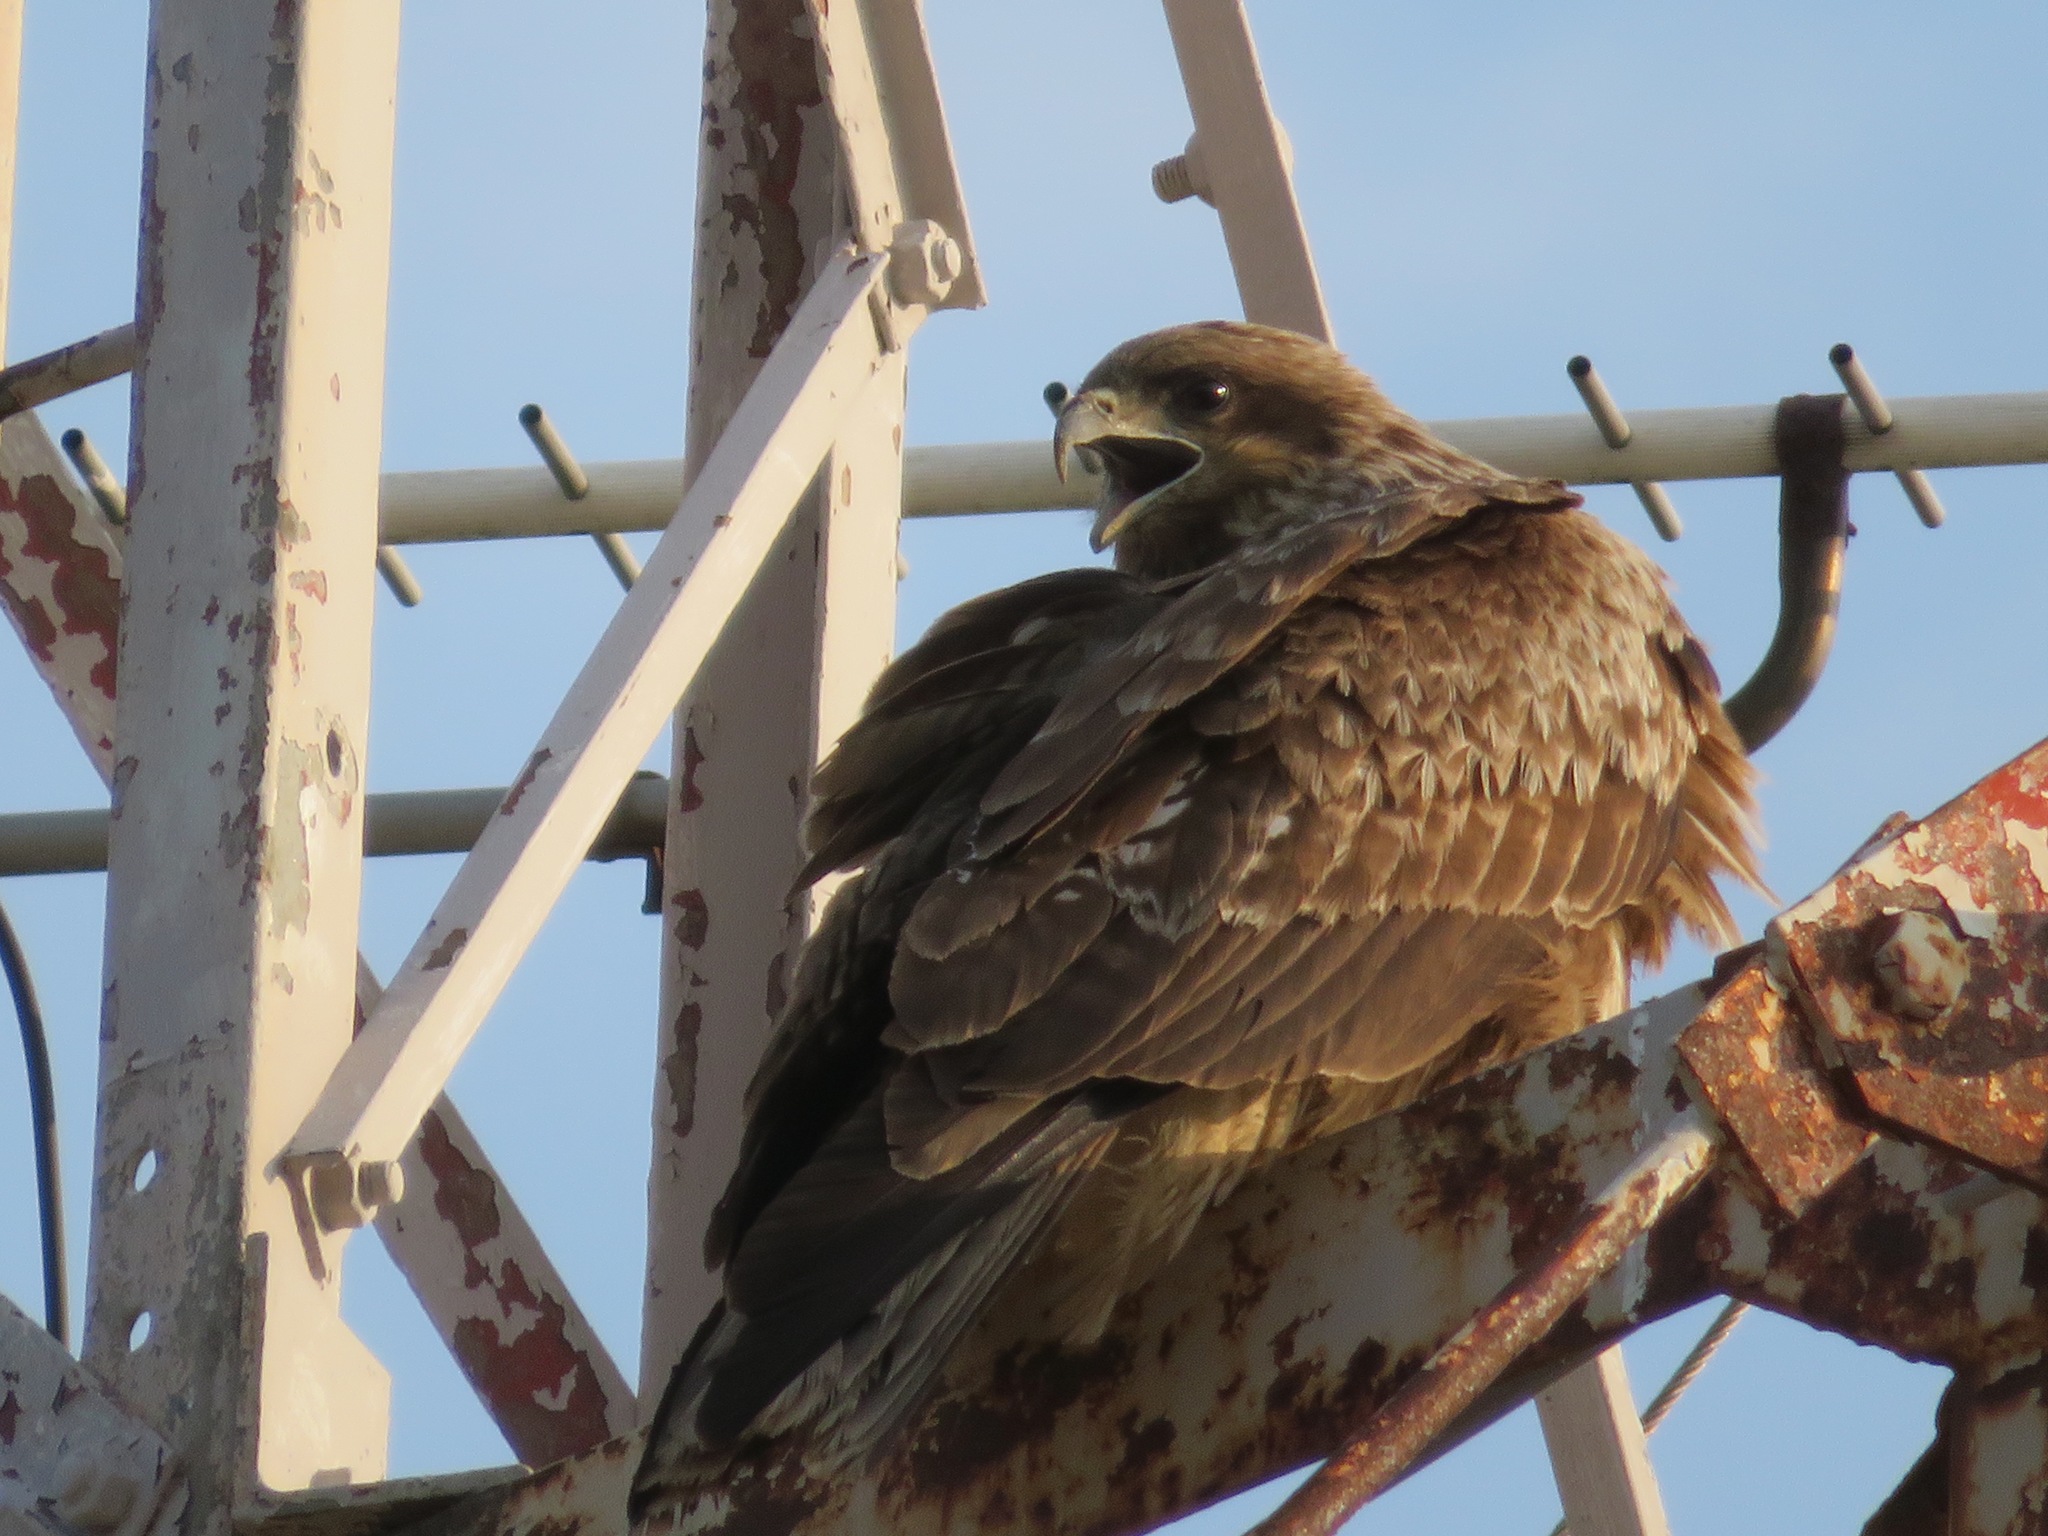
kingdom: Animalia
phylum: Chordata
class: Aves
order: Accipitriformes
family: Accipitridae
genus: Milvus
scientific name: Milvus migrans
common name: Black kite
